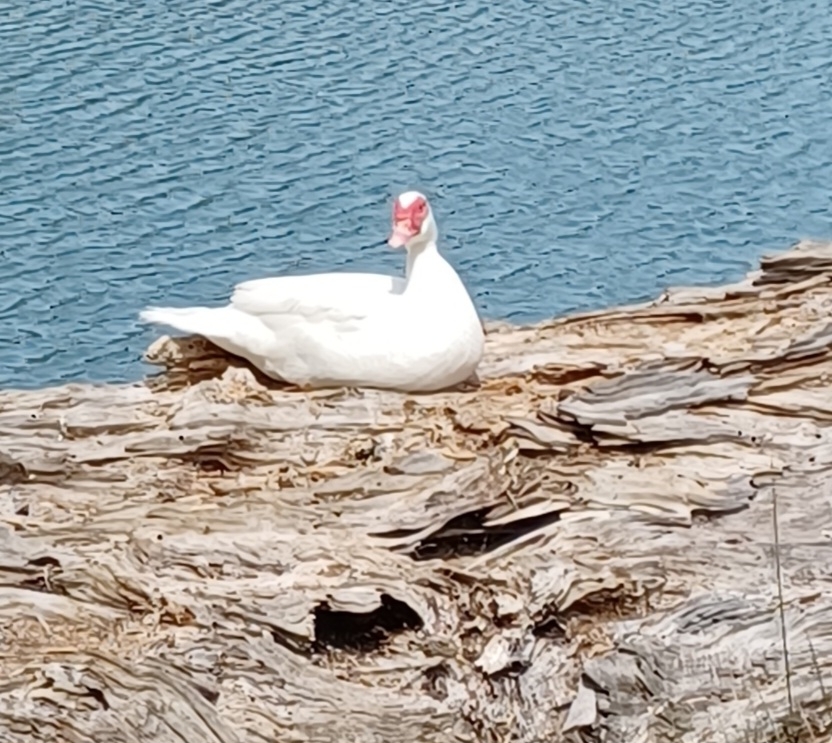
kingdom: Animalia
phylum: Chordata
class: Aves
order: Anseriformes
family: Anatidae
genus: Cairina
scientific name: Cairina moschata
